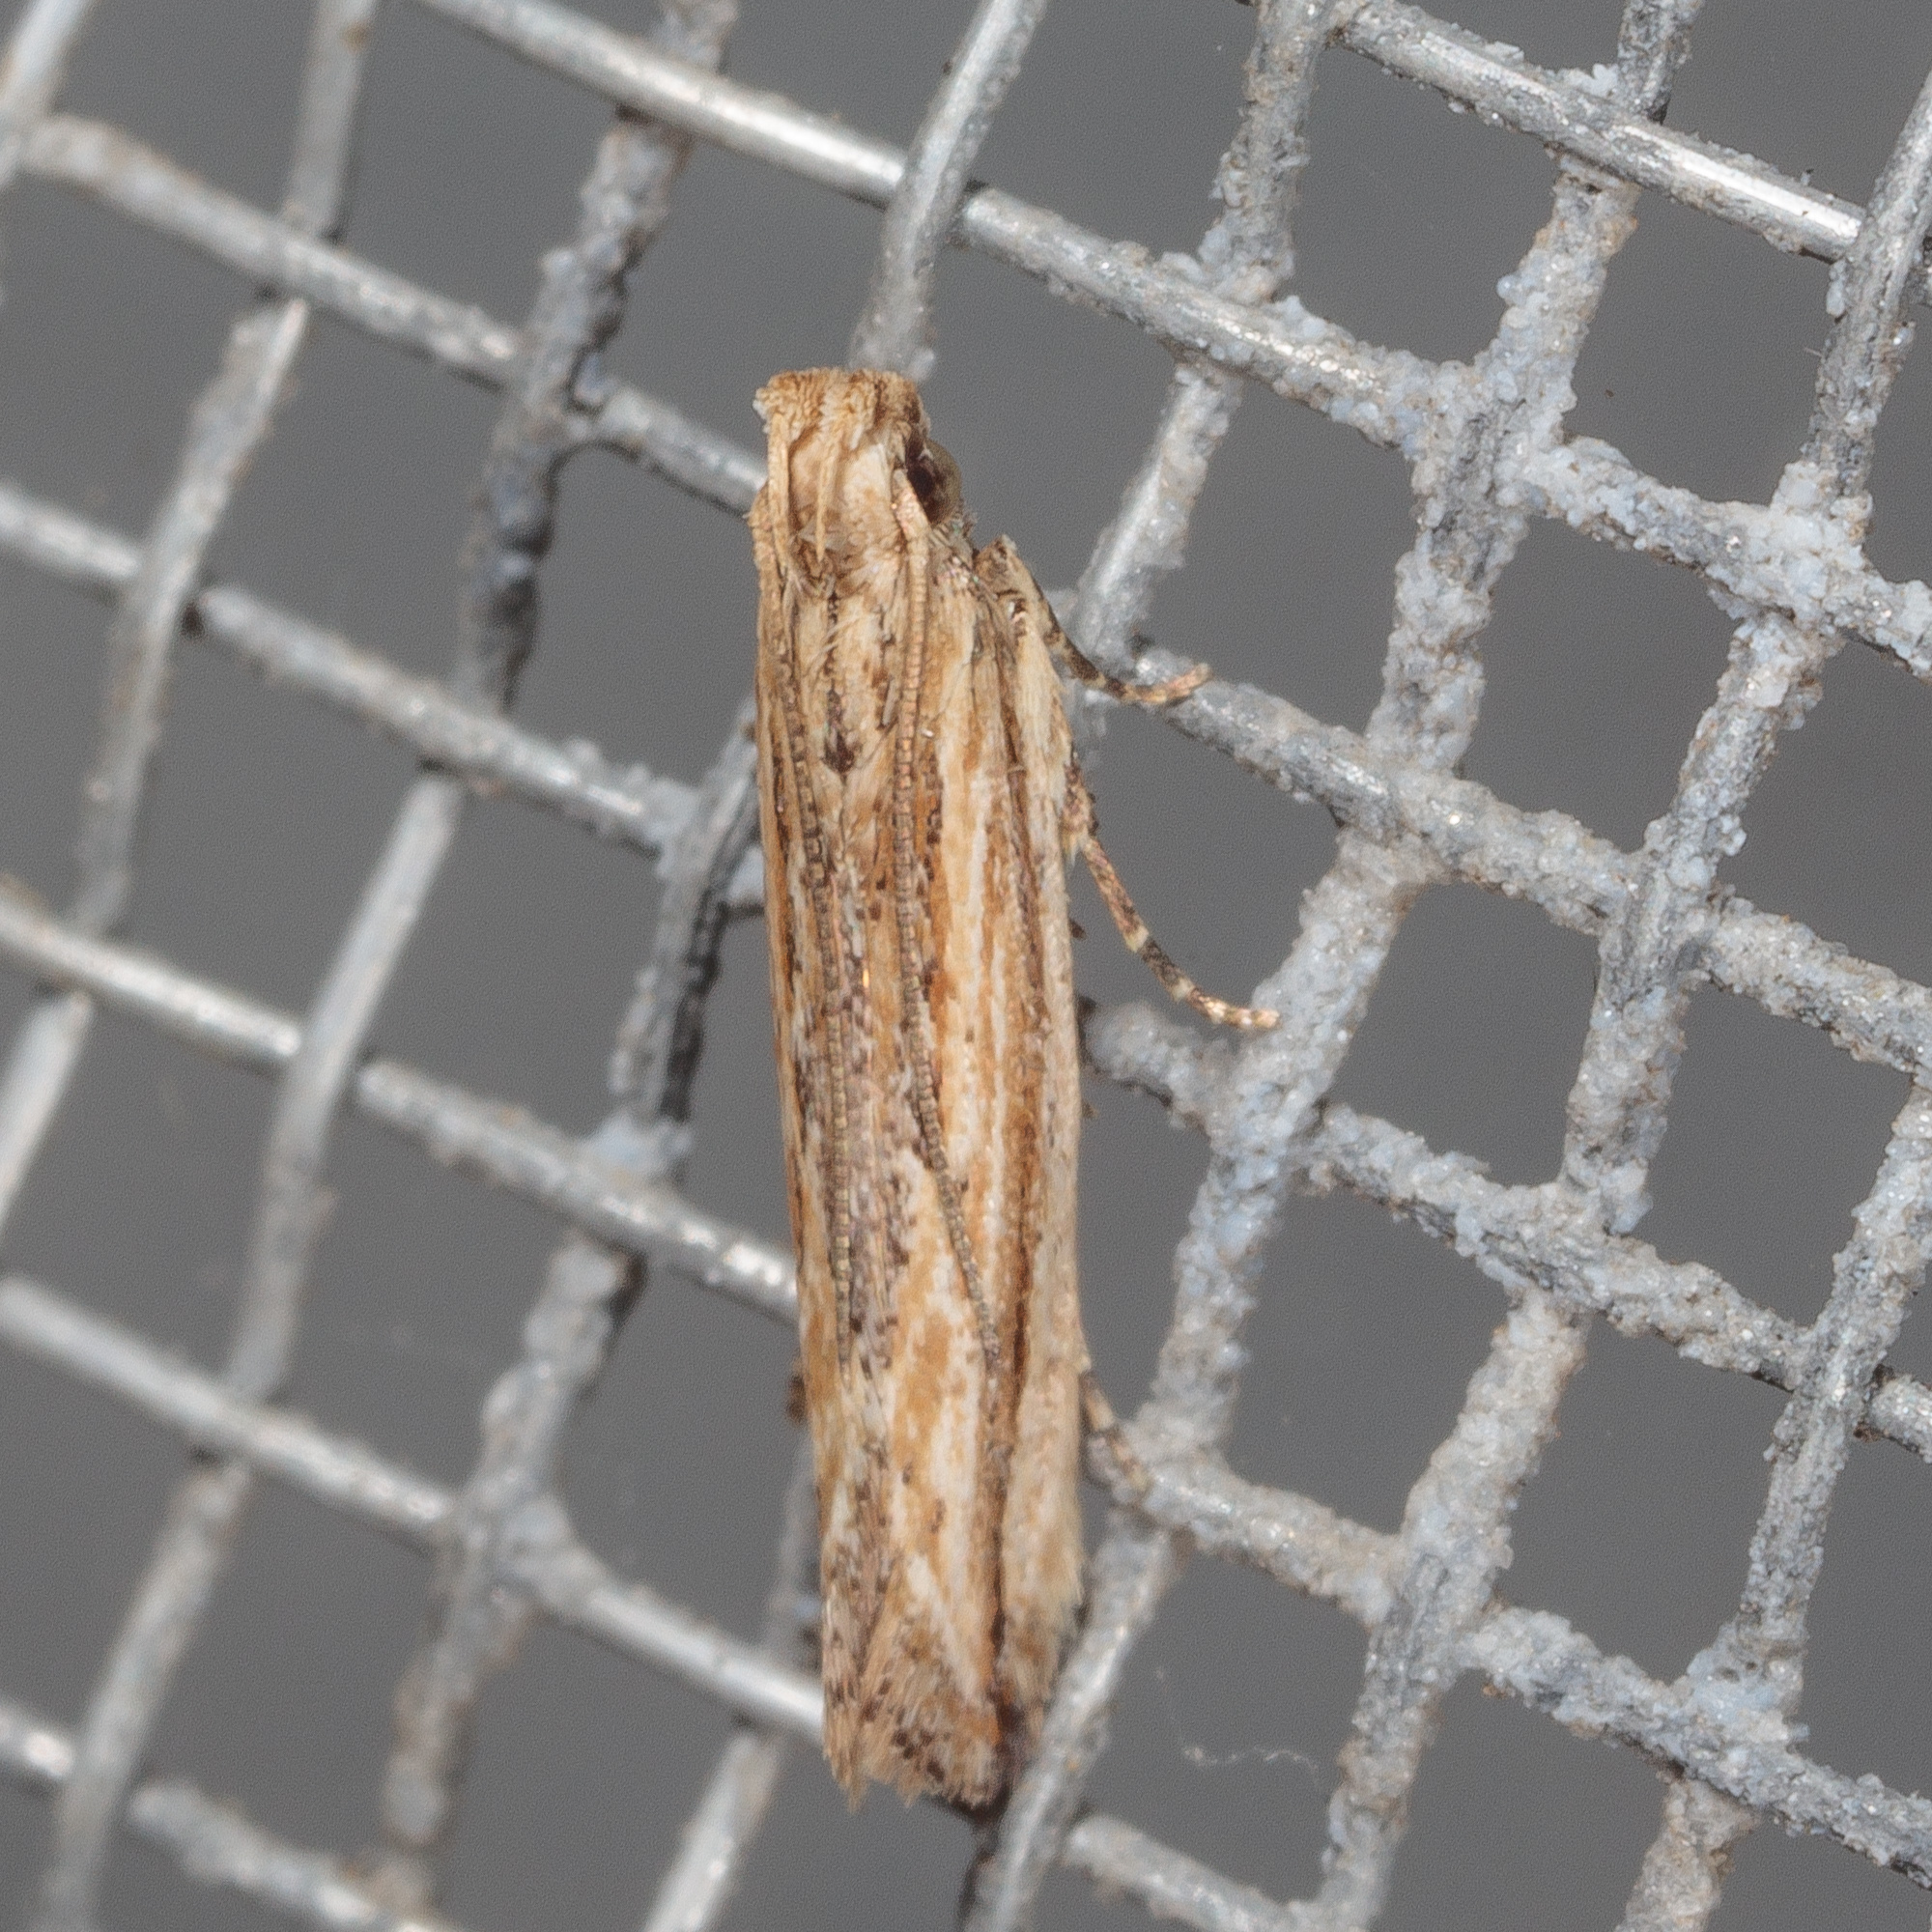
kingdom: Animalia
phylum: Arthropoda
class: Insecta
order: Lepidoptera
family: Gelechiidae
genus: Symmetrischema
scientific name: Symmetrischema striatella
